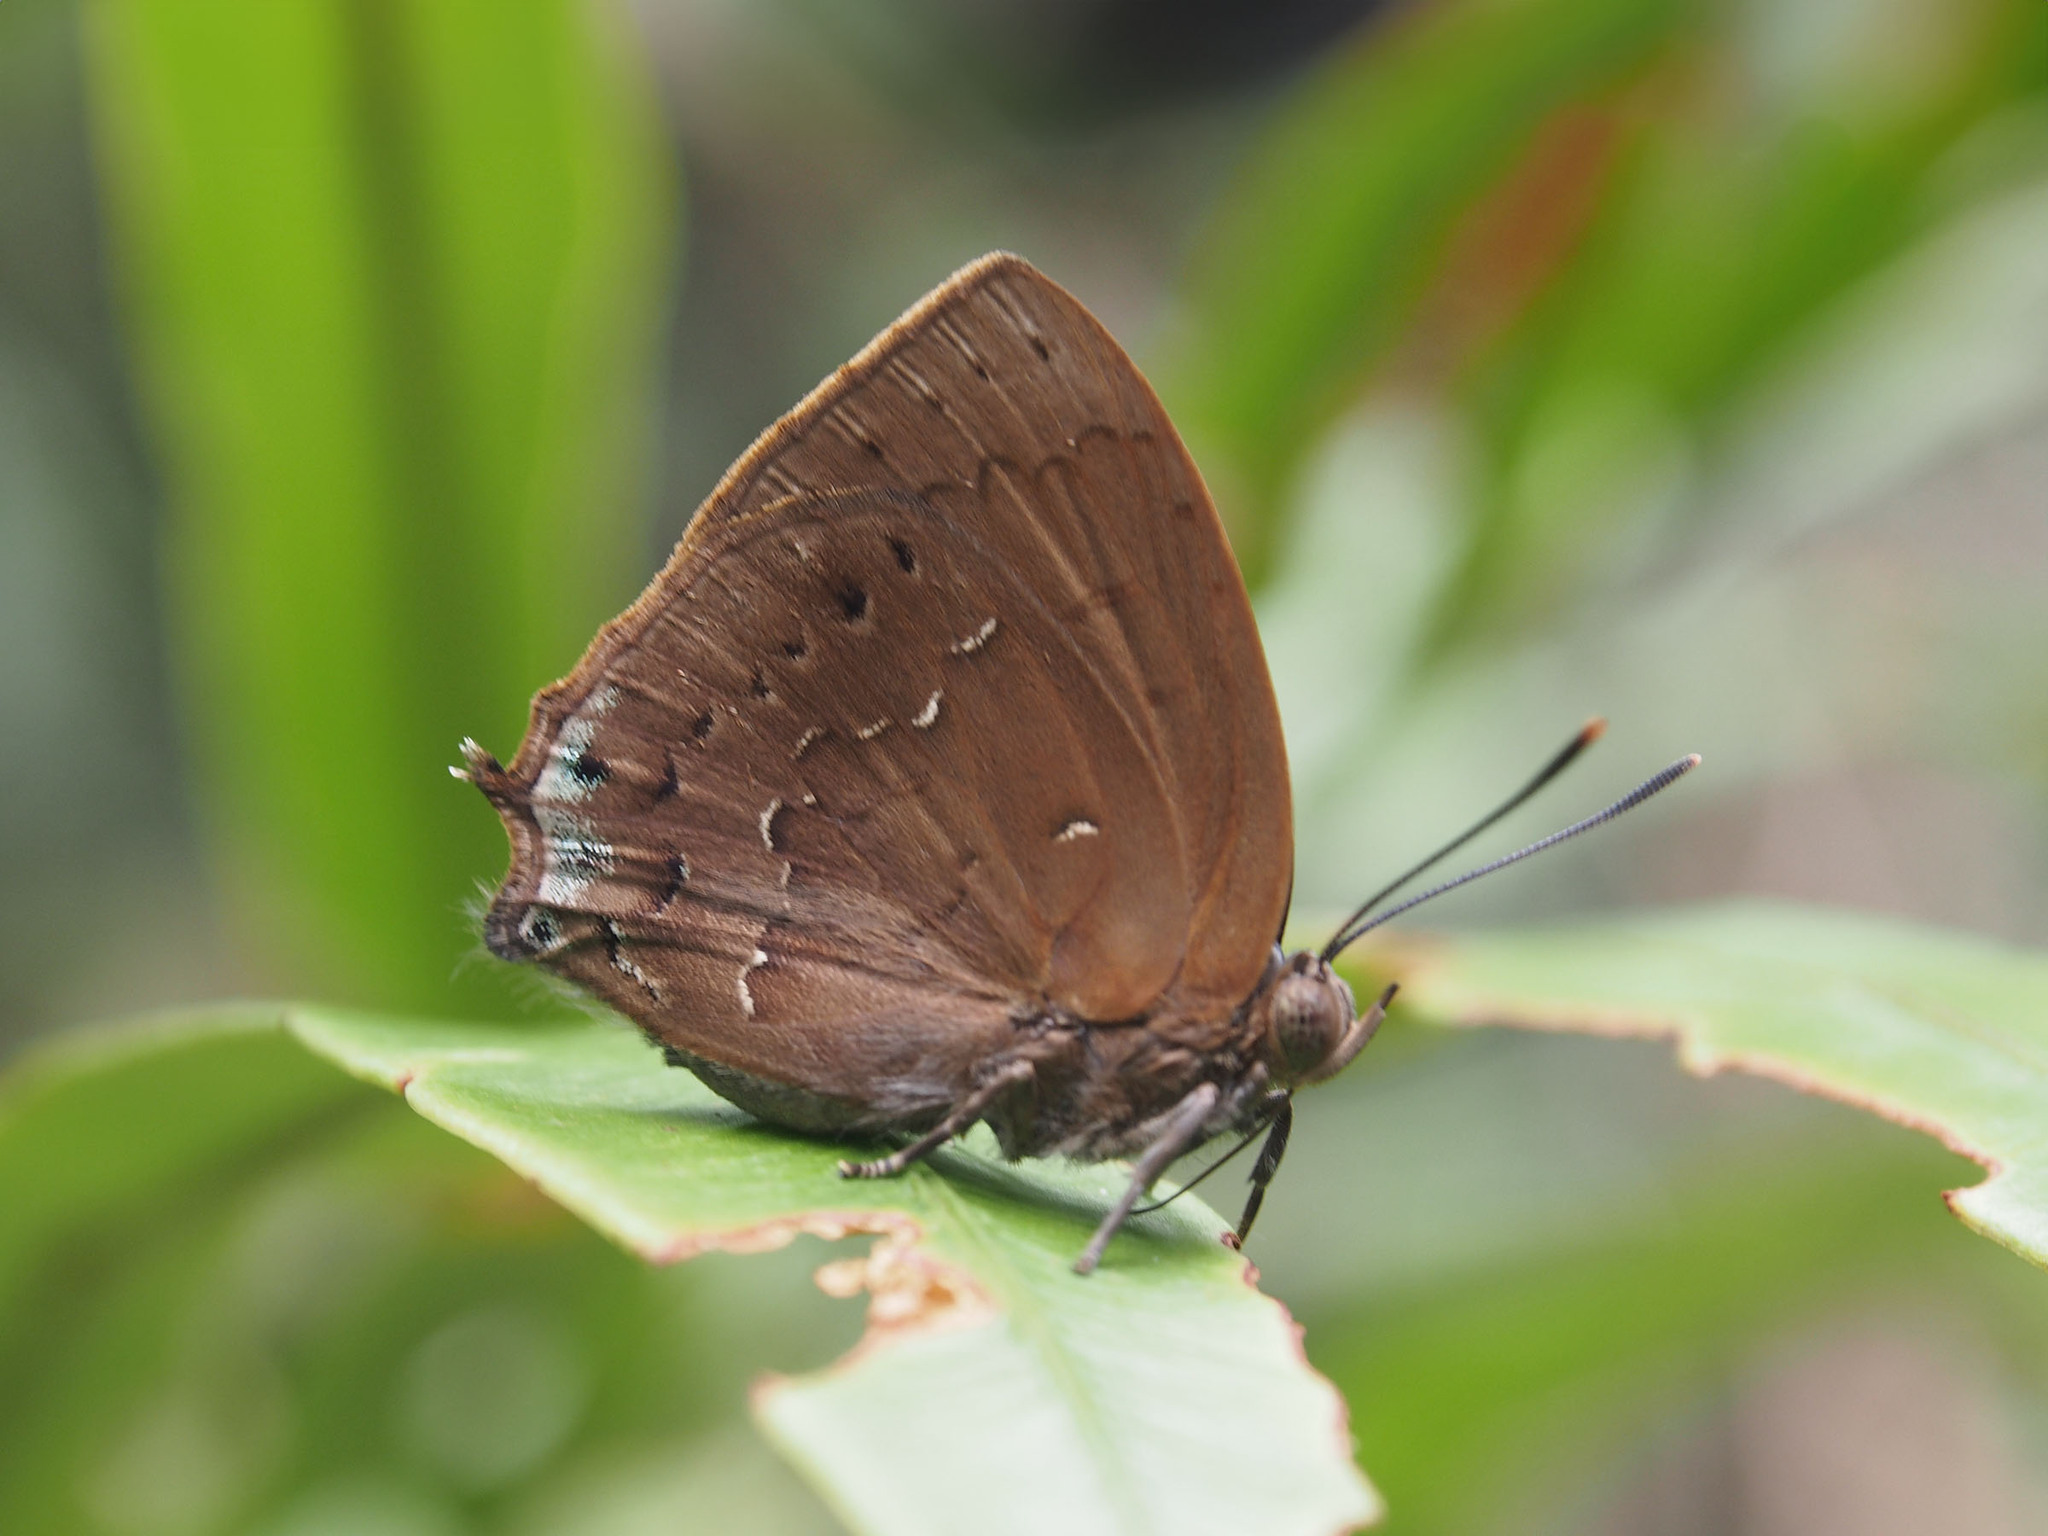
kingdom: Animalia
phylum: Arthropoda
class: Insecta
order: Lepidoptera
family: Lycaenidae
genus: Surendra
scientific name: Surendra vivarna
